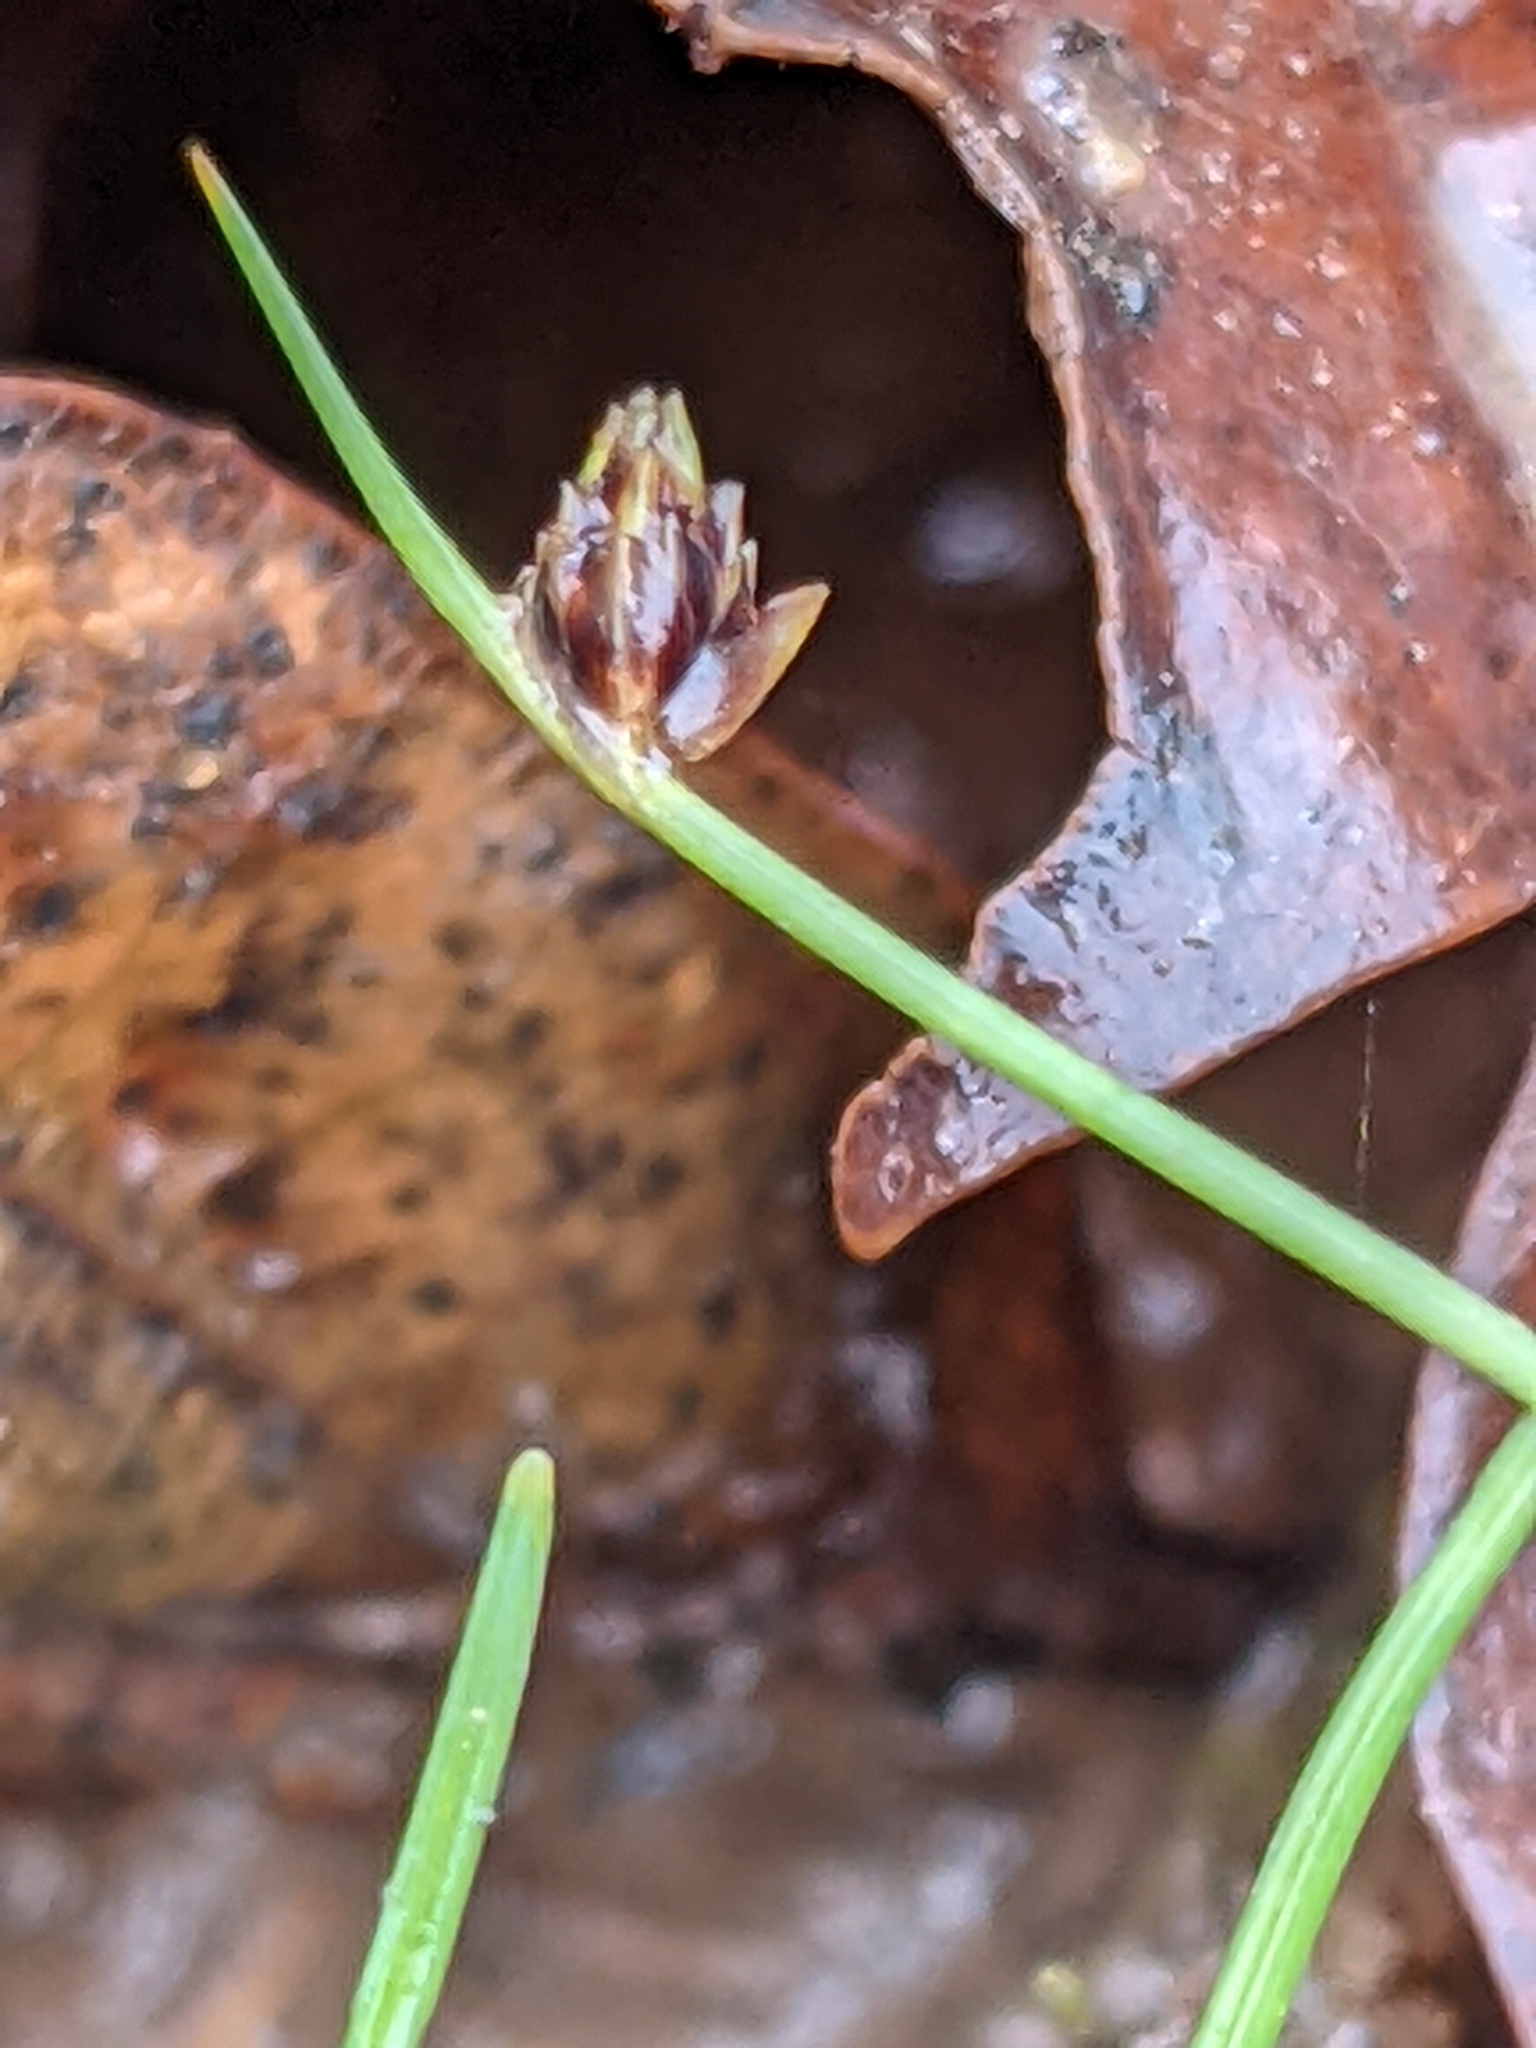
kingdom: Plantae
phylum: Tracheophyta
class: Liliopsida
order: Poales
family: Cyperaceae
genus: Isolepis
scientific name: Isolepis setacea
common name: Bristle club-rush
